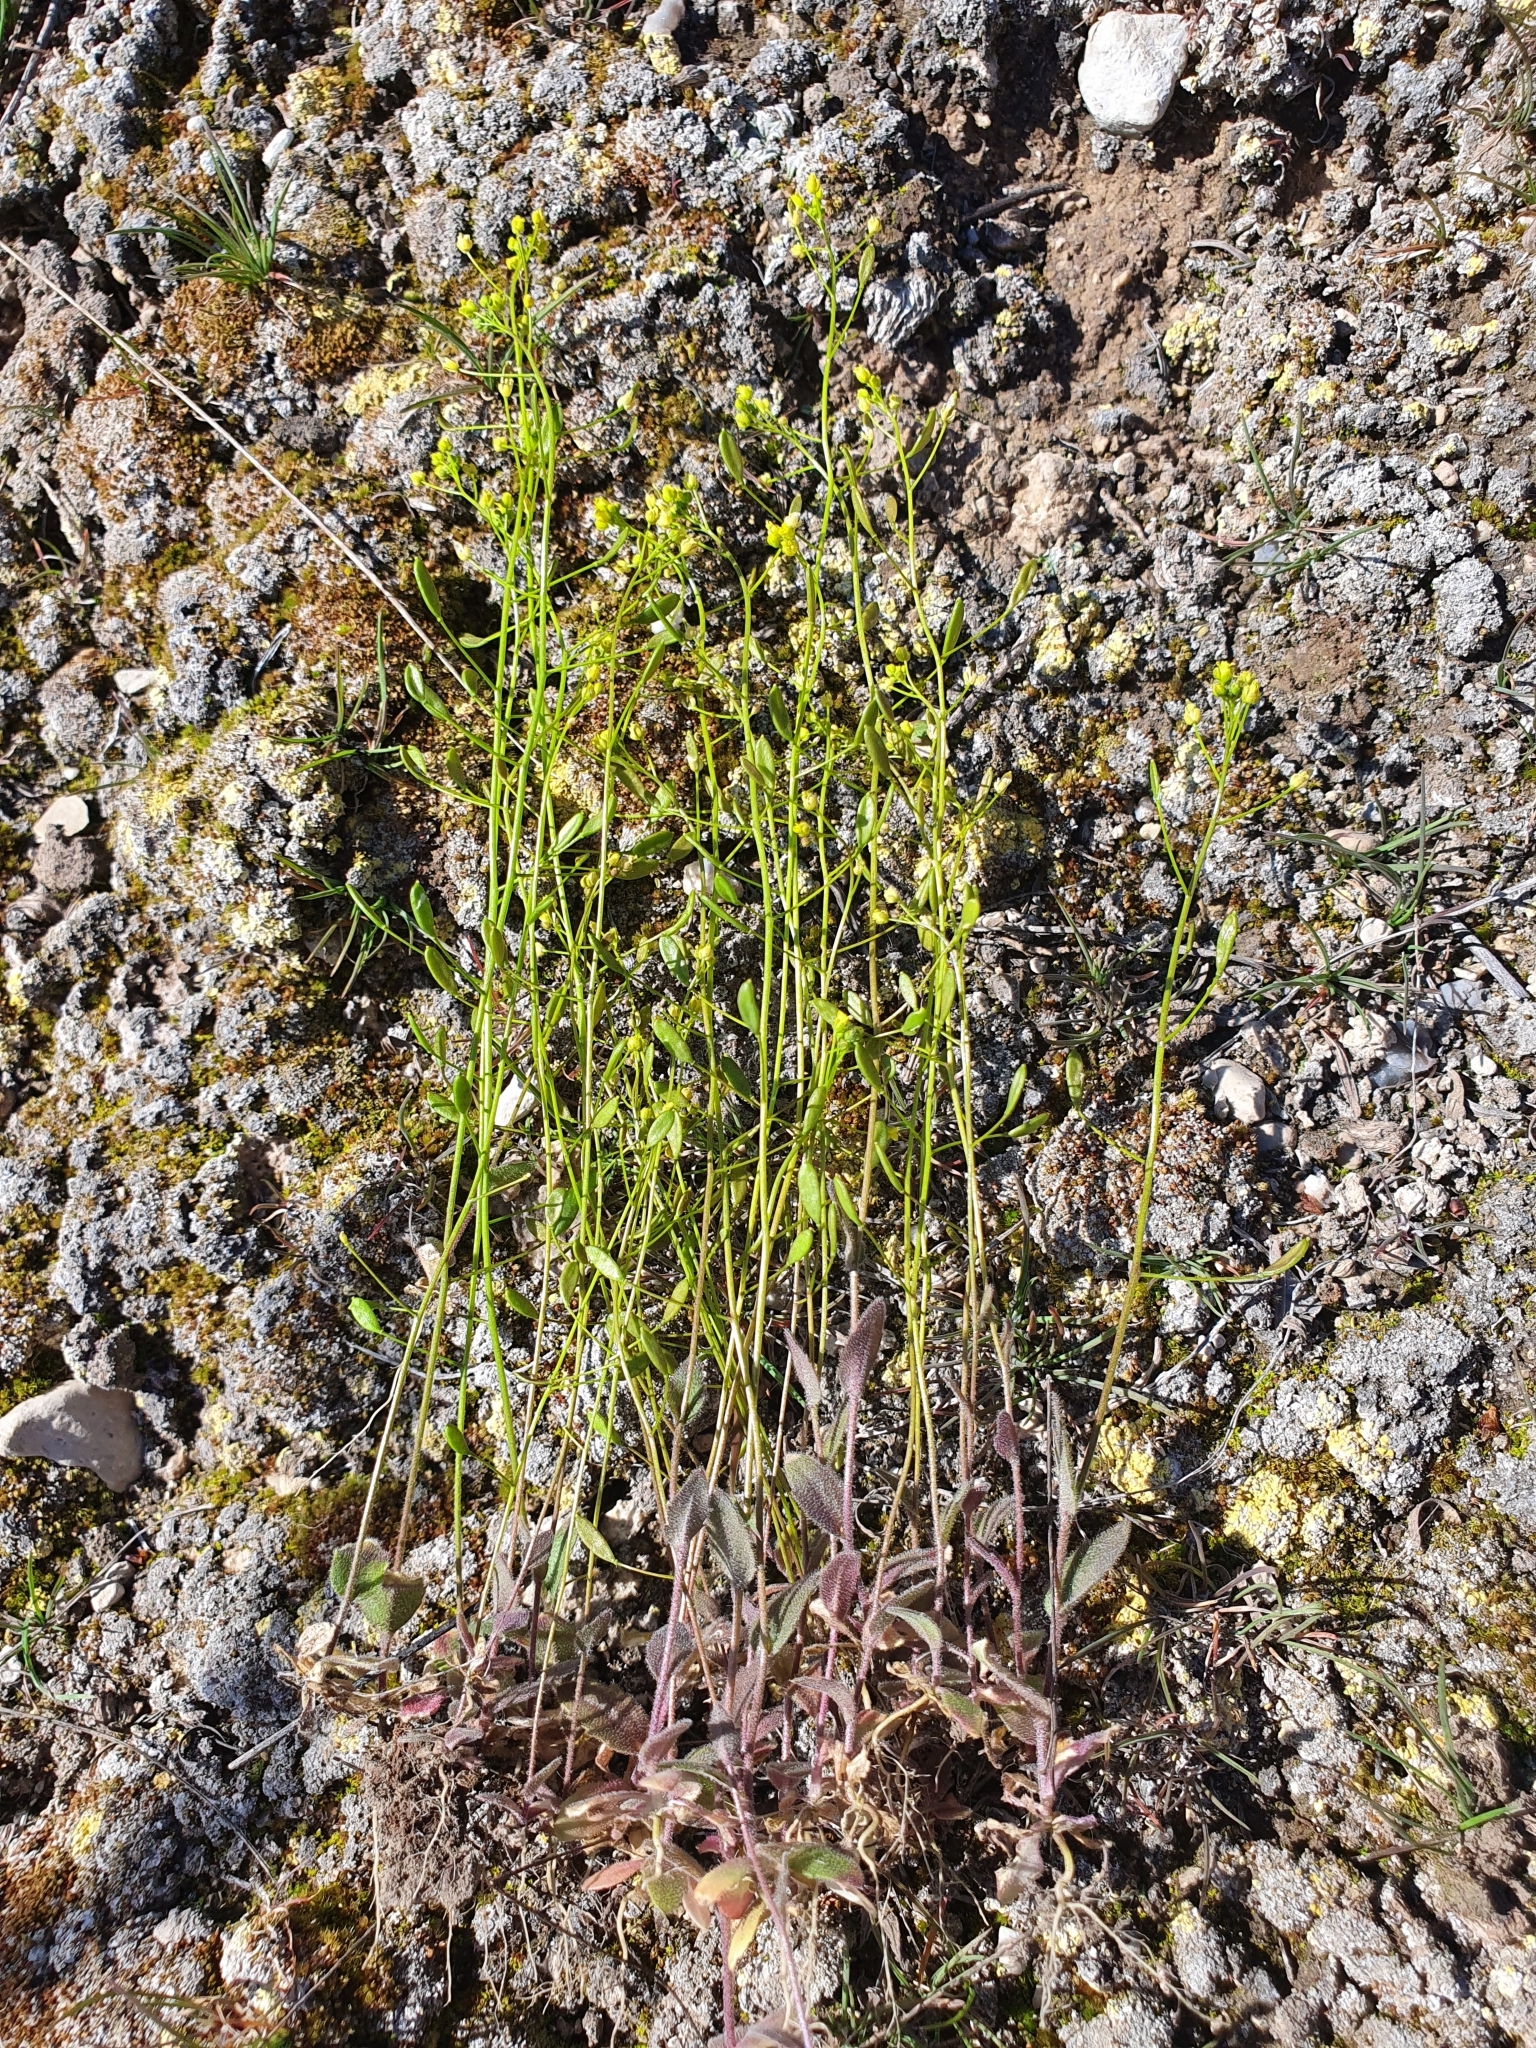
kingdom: Plantae
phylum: Tracheophyta
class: Magnoliopsida
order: Brassicales
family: Brassicaceae
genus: Draba
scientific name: Draba nemorosa
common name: Wood whitlow-grass
